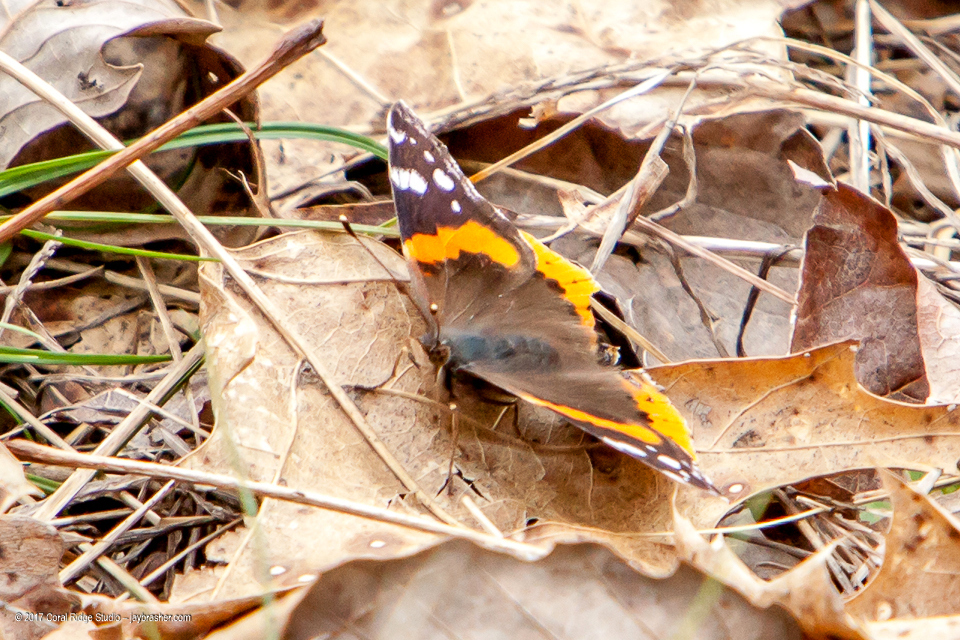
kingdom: Animalia
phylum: Arthropoda
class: Insecta
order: Lepidoptera
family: Nymphalidae
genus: Vanessa
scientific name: Vanessa atalanta
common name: Red admiral
